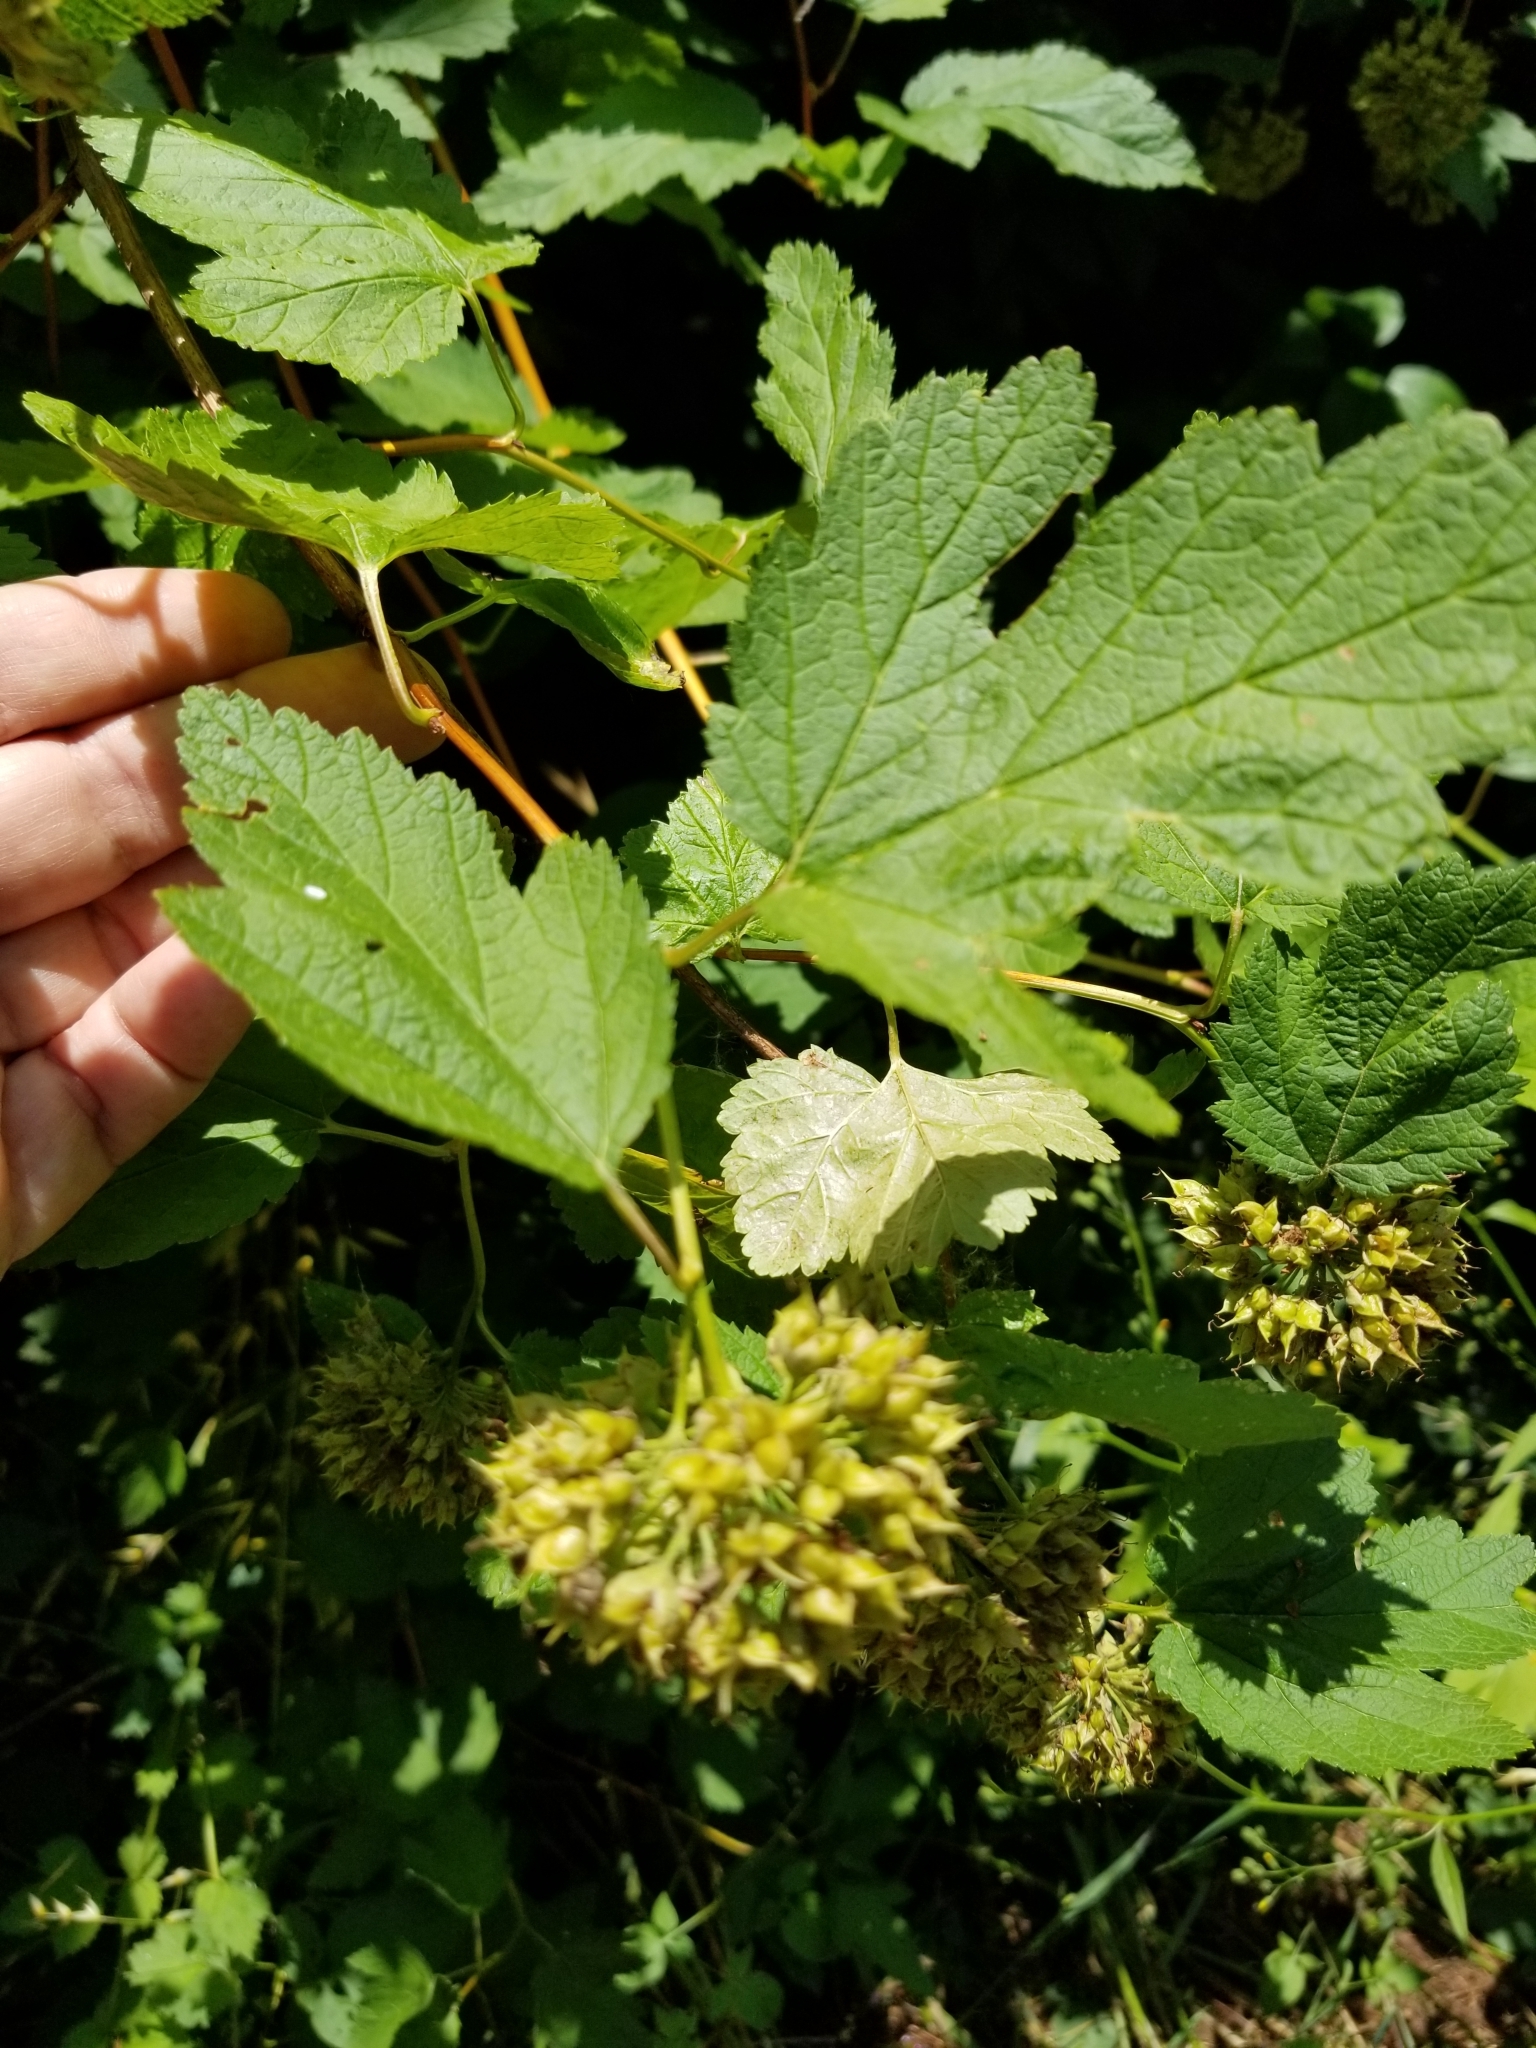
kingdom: Plantae
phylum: Tracheophyta
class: Magnoliopsida
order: Rosales
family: Rosaceae
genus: Physocarpus
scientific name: Physocarpus capitatus
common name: Pacific ninebark
